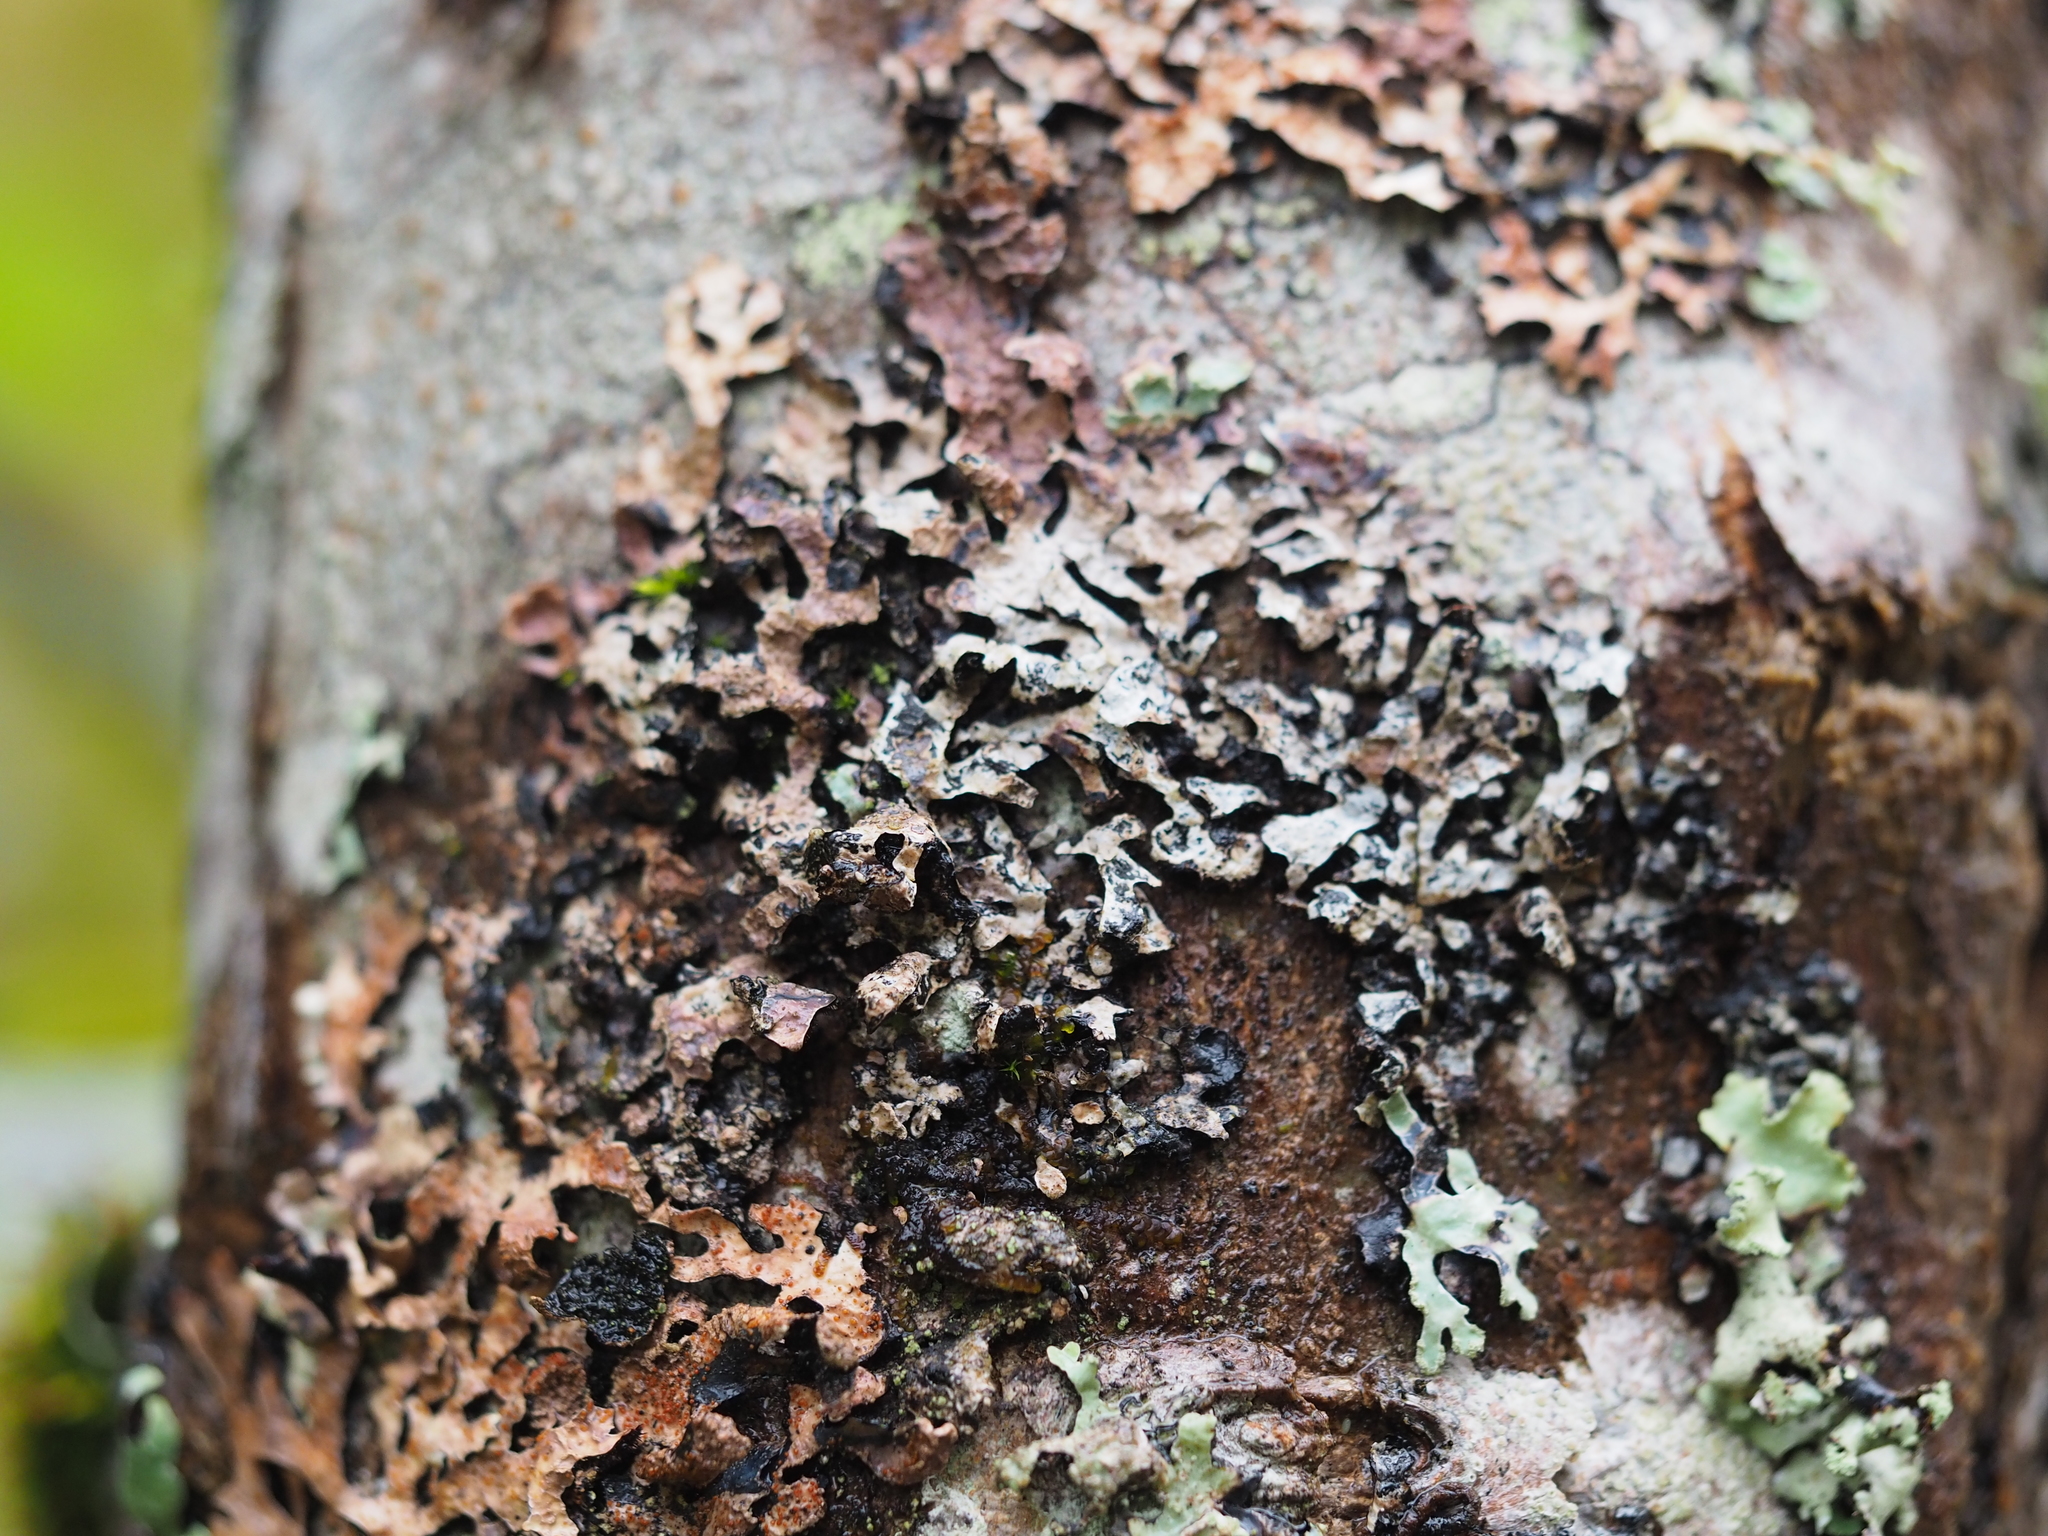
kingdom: Fungi
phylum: Ascomycota
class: Lecanoromycetes
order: Lecanorales
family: Parmeliaceae
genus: Parmelia
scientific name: Parmelia sulcata
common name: Netted shield lichen
